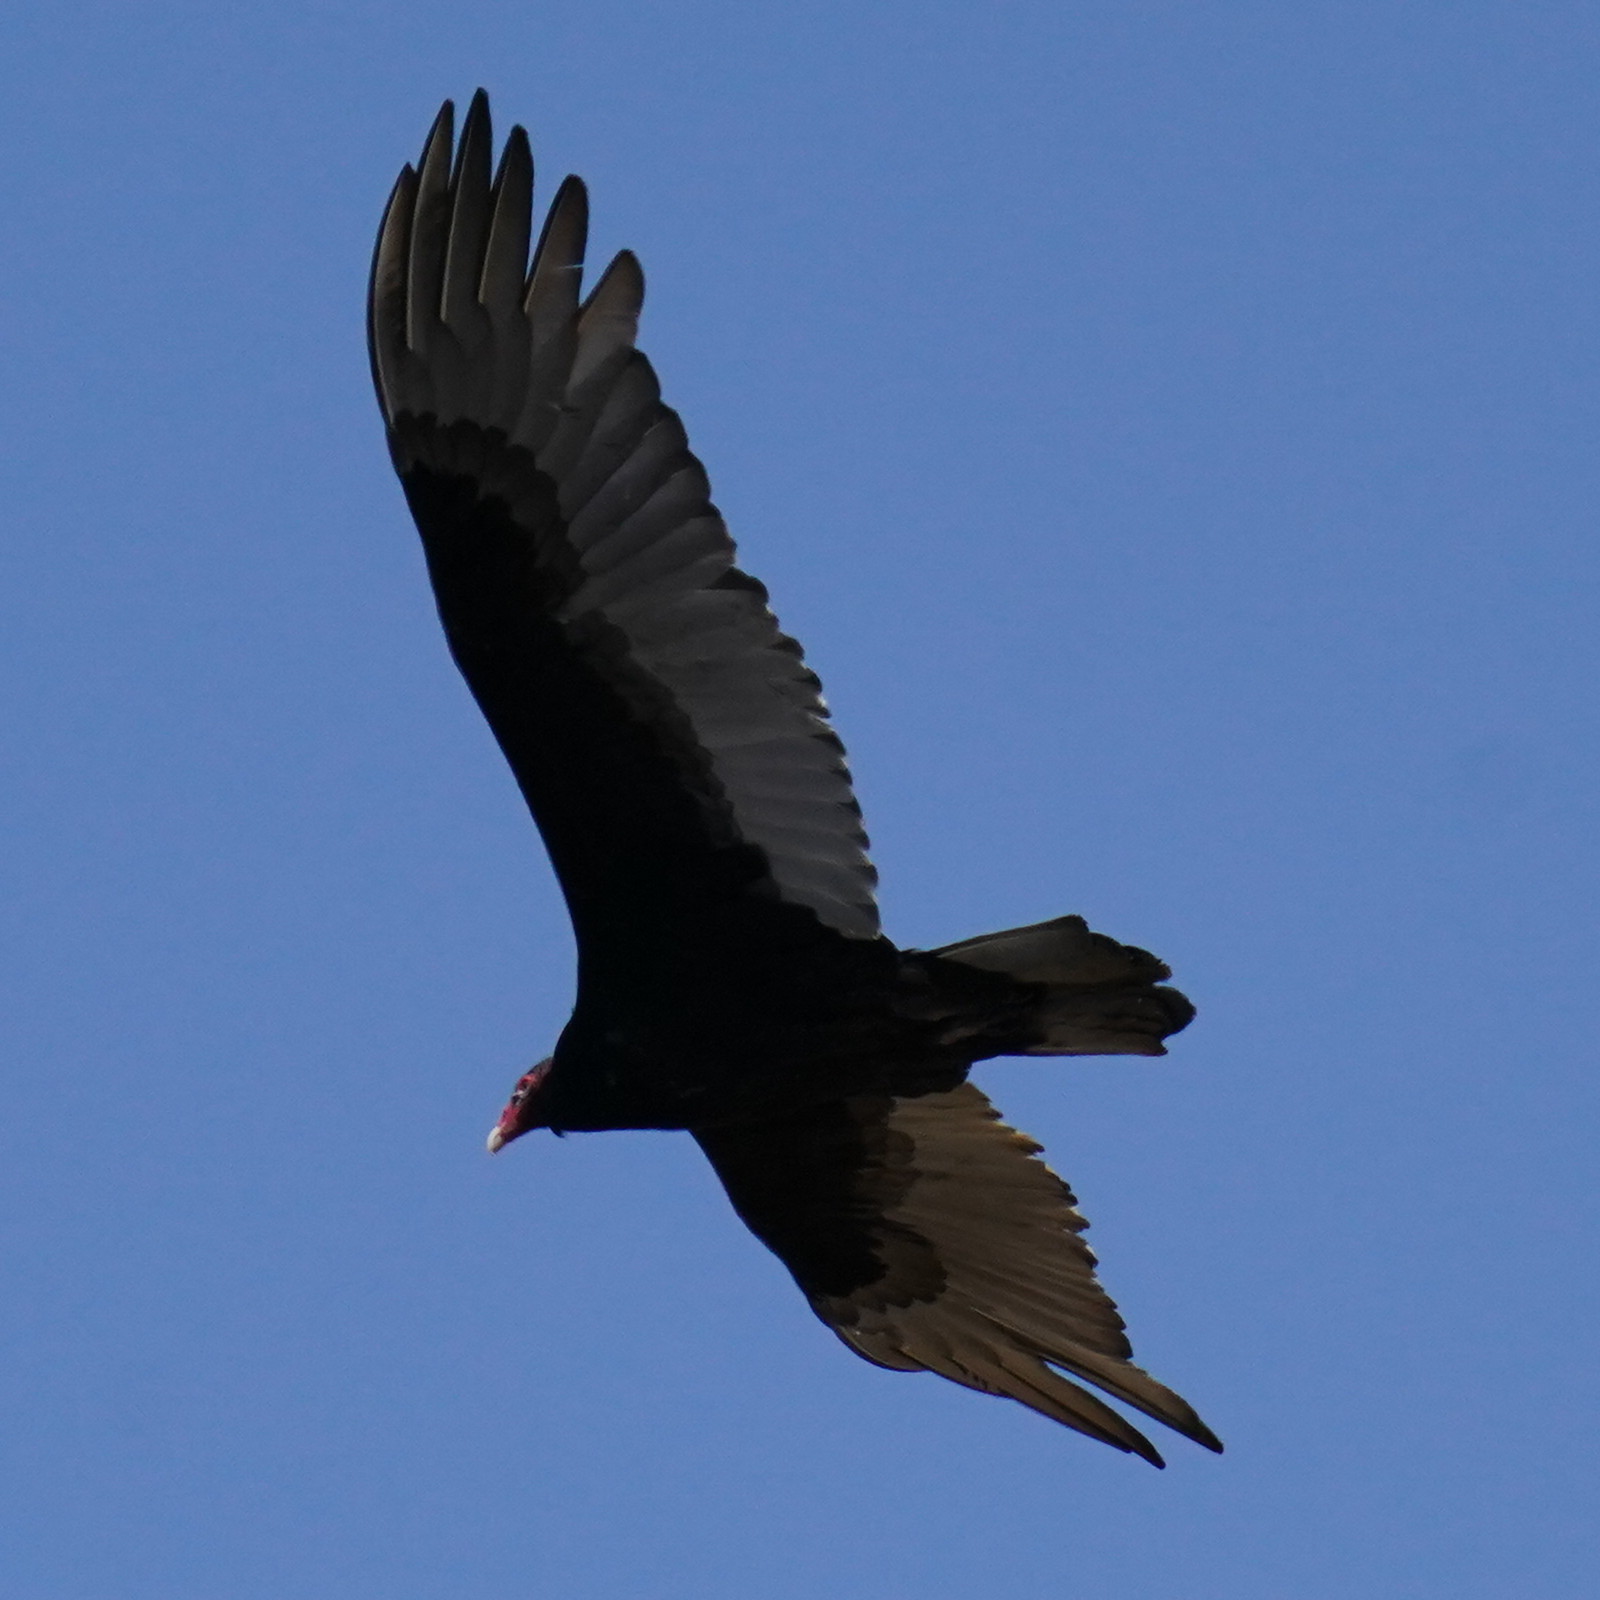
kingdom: Animalia
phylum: Chordata
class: Aves
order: Accipitriformes
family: Cathartidae
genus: Cathartes
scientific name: Cathartes aura
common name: Turkey vulture
